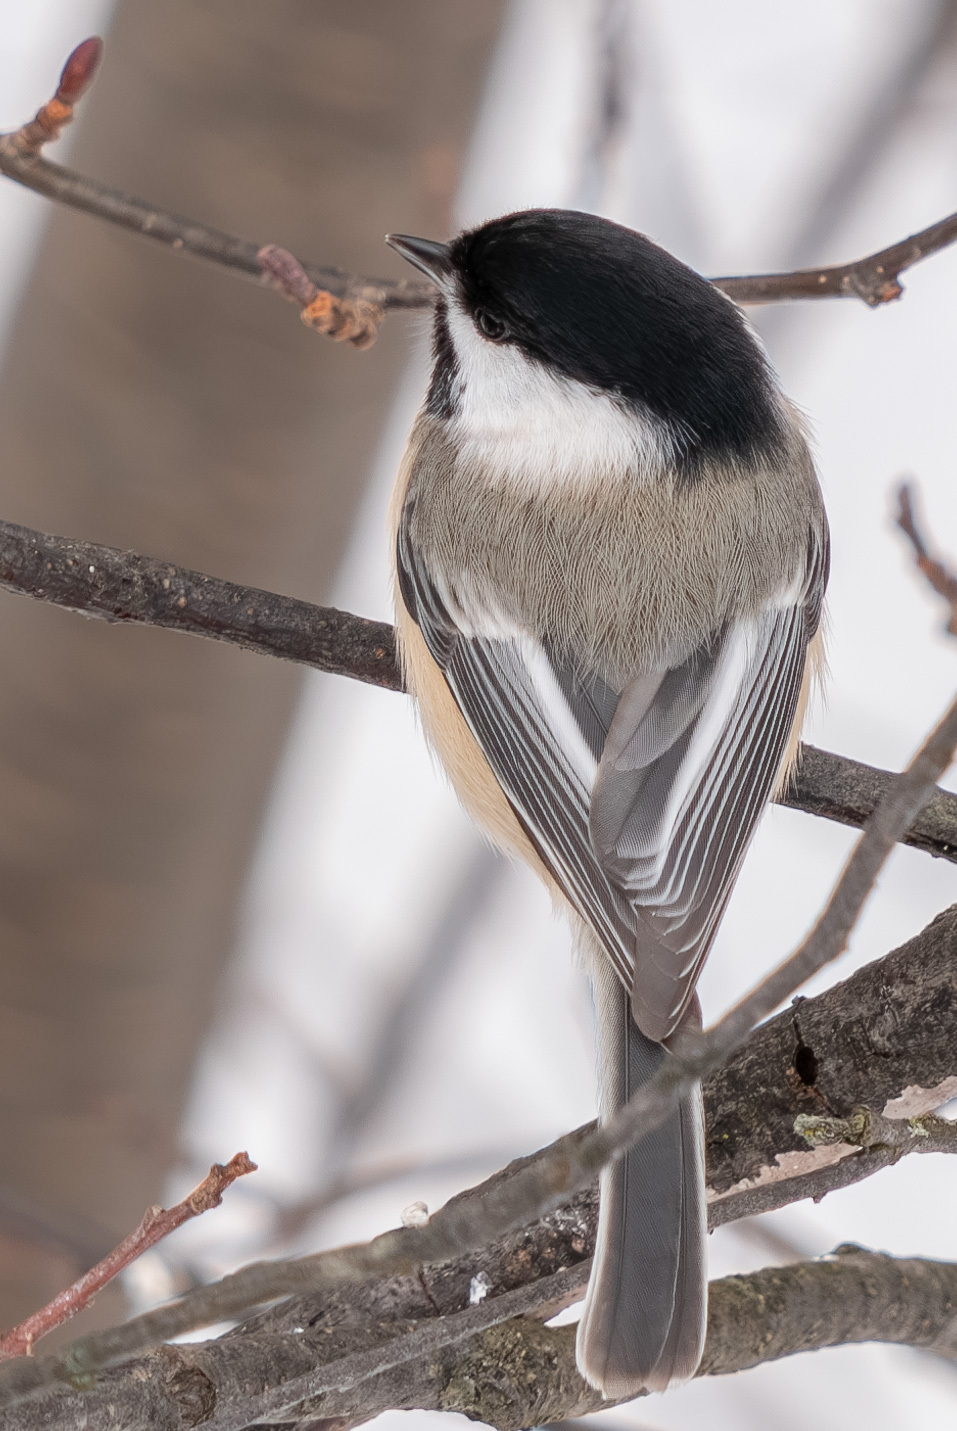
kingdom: Animalia
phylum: Chordata
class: Aves
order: Passeriformes
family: Paridae
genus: Poecile
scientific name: Poecile atricapillus
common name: Black-capped chickadee
